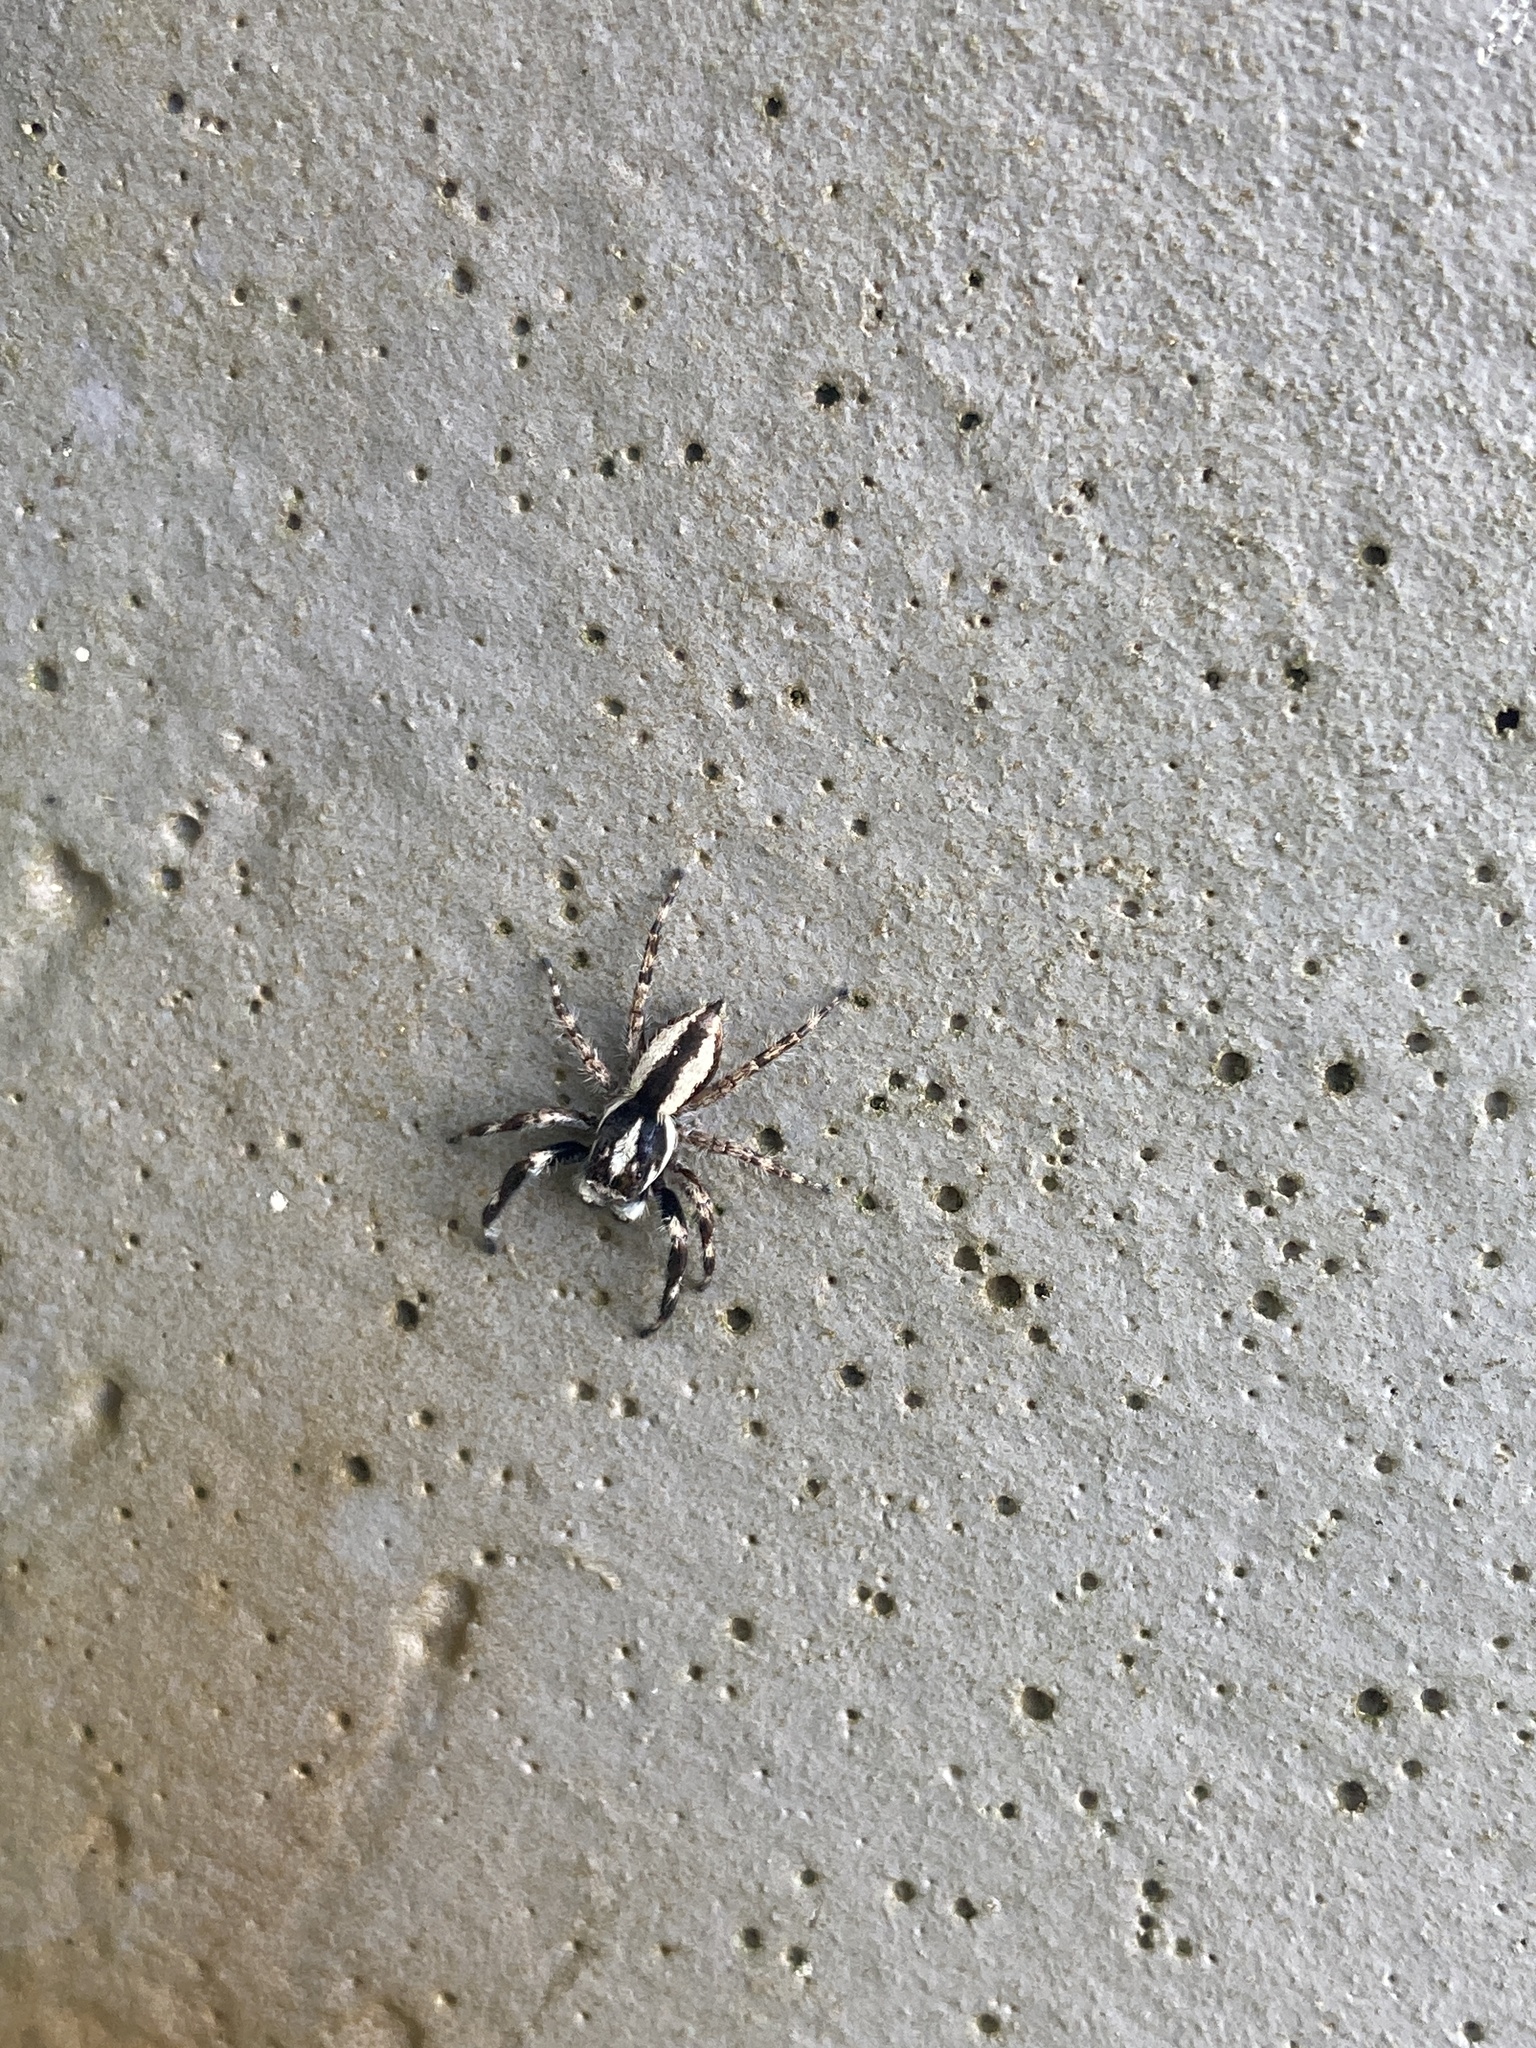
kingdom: Animalia
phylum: Arthropoda
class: Arachnida
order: Araneae
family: Salticidae
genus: Menemerus
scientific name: Menemerus bivittatus
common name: Gray wall jumper
